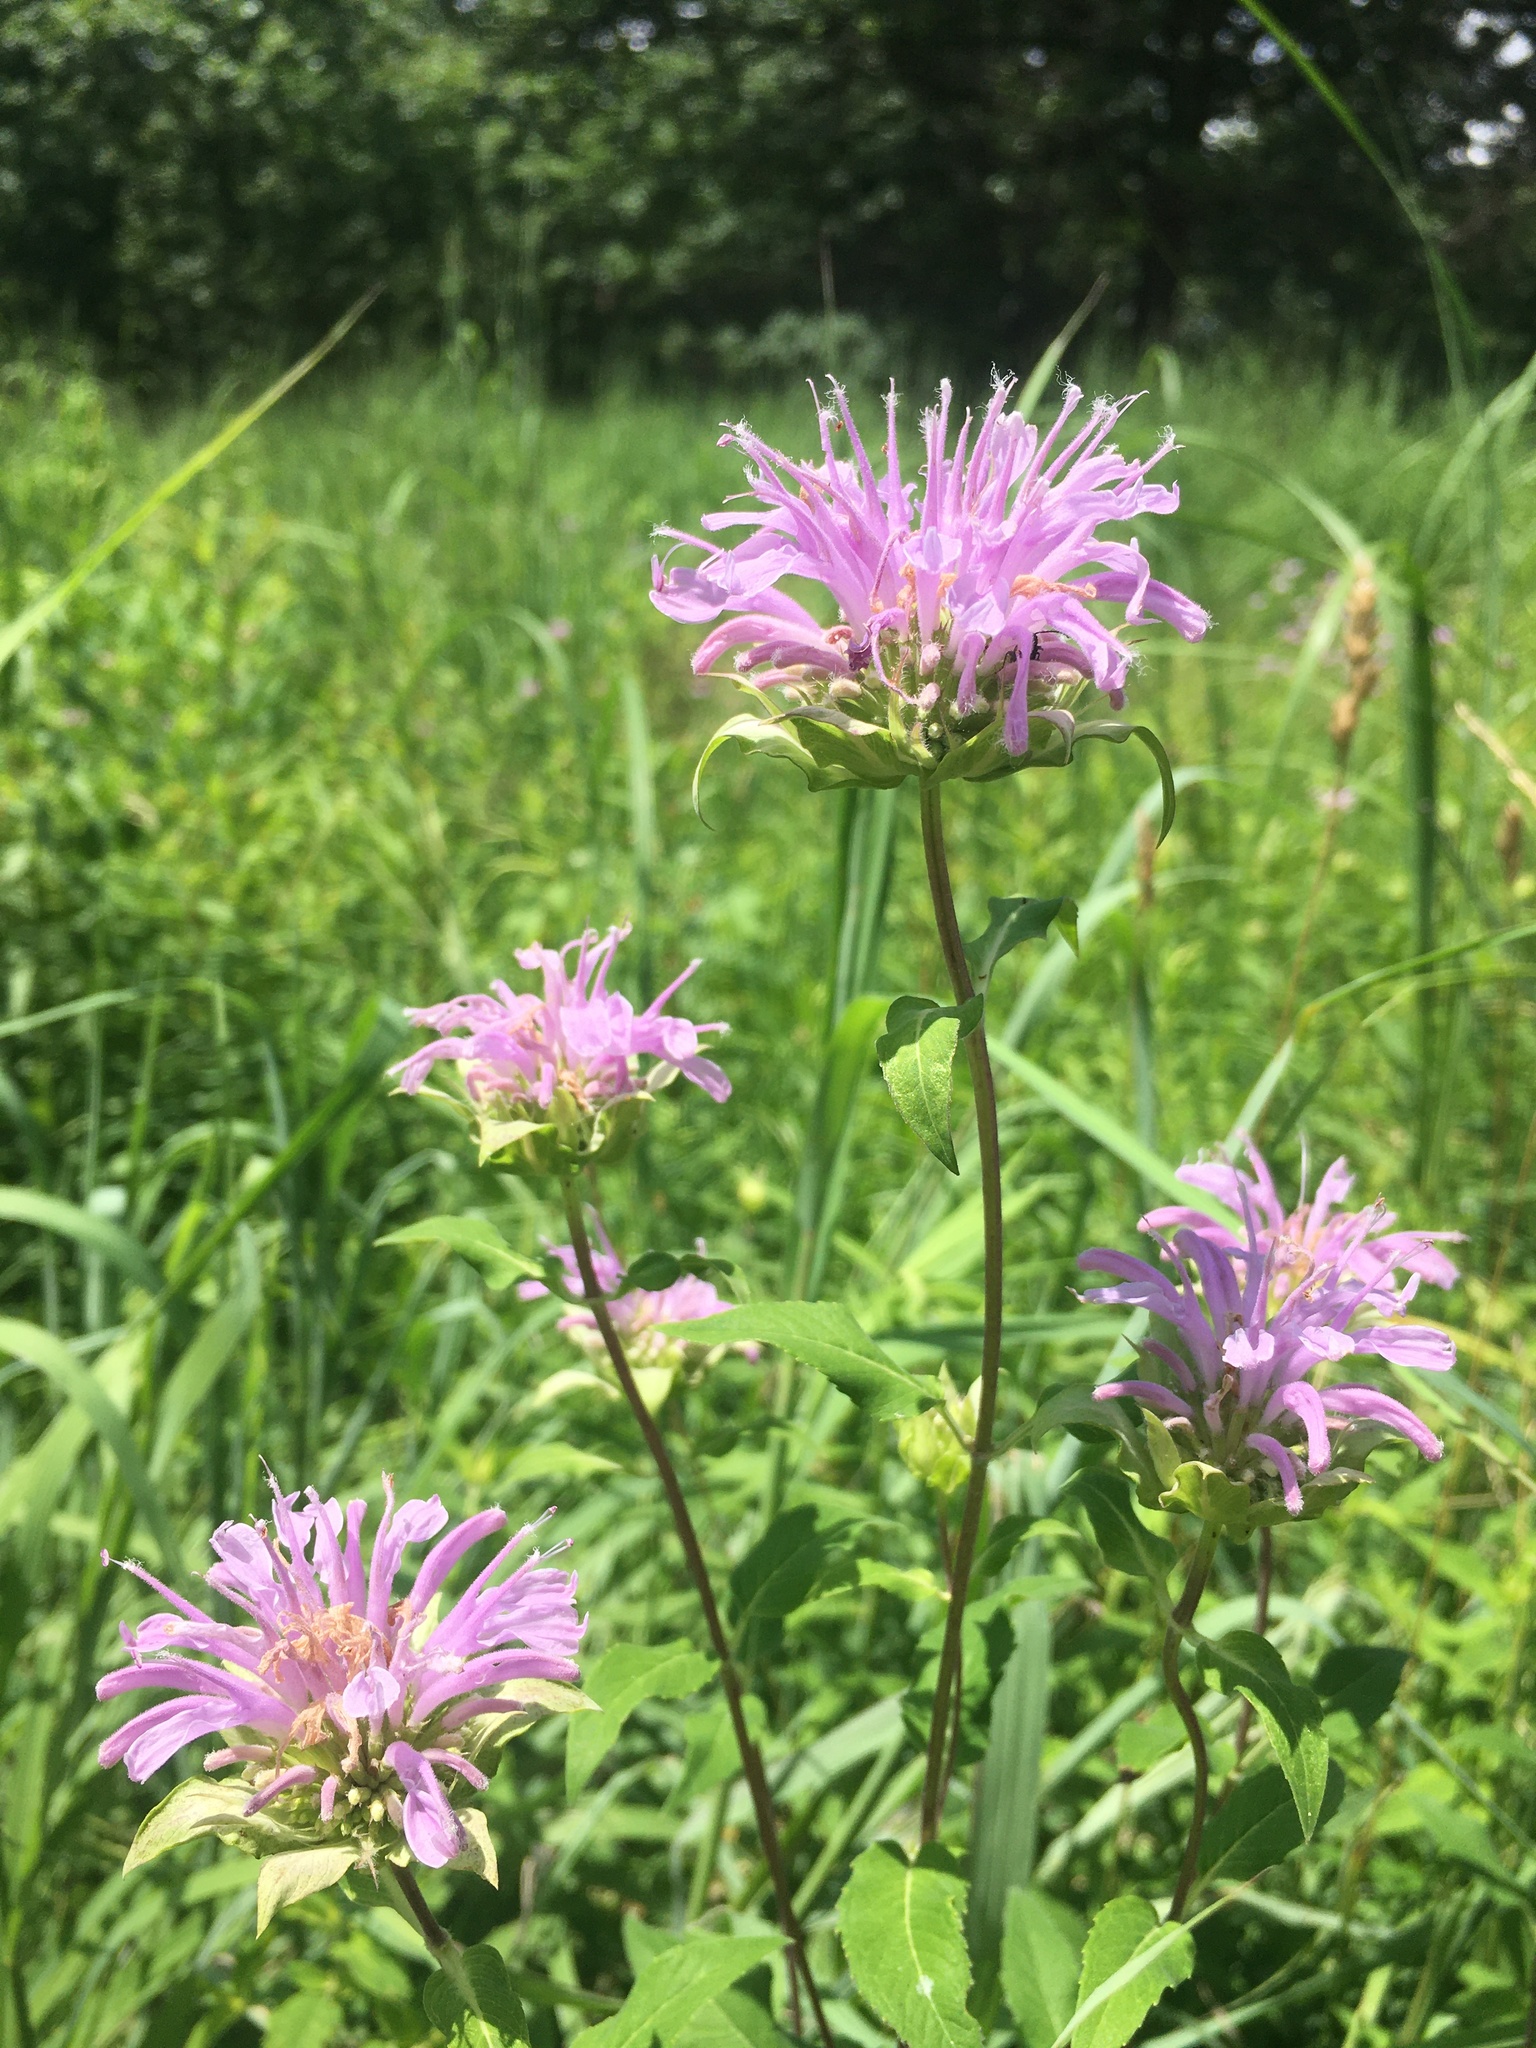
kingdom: Plantae
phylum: Tracheophyta
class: Magnoliopsida
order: Lamiales
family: Lamiaceae
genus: Monarda
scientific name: Monarda fistulosa
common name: Purple beebalm
